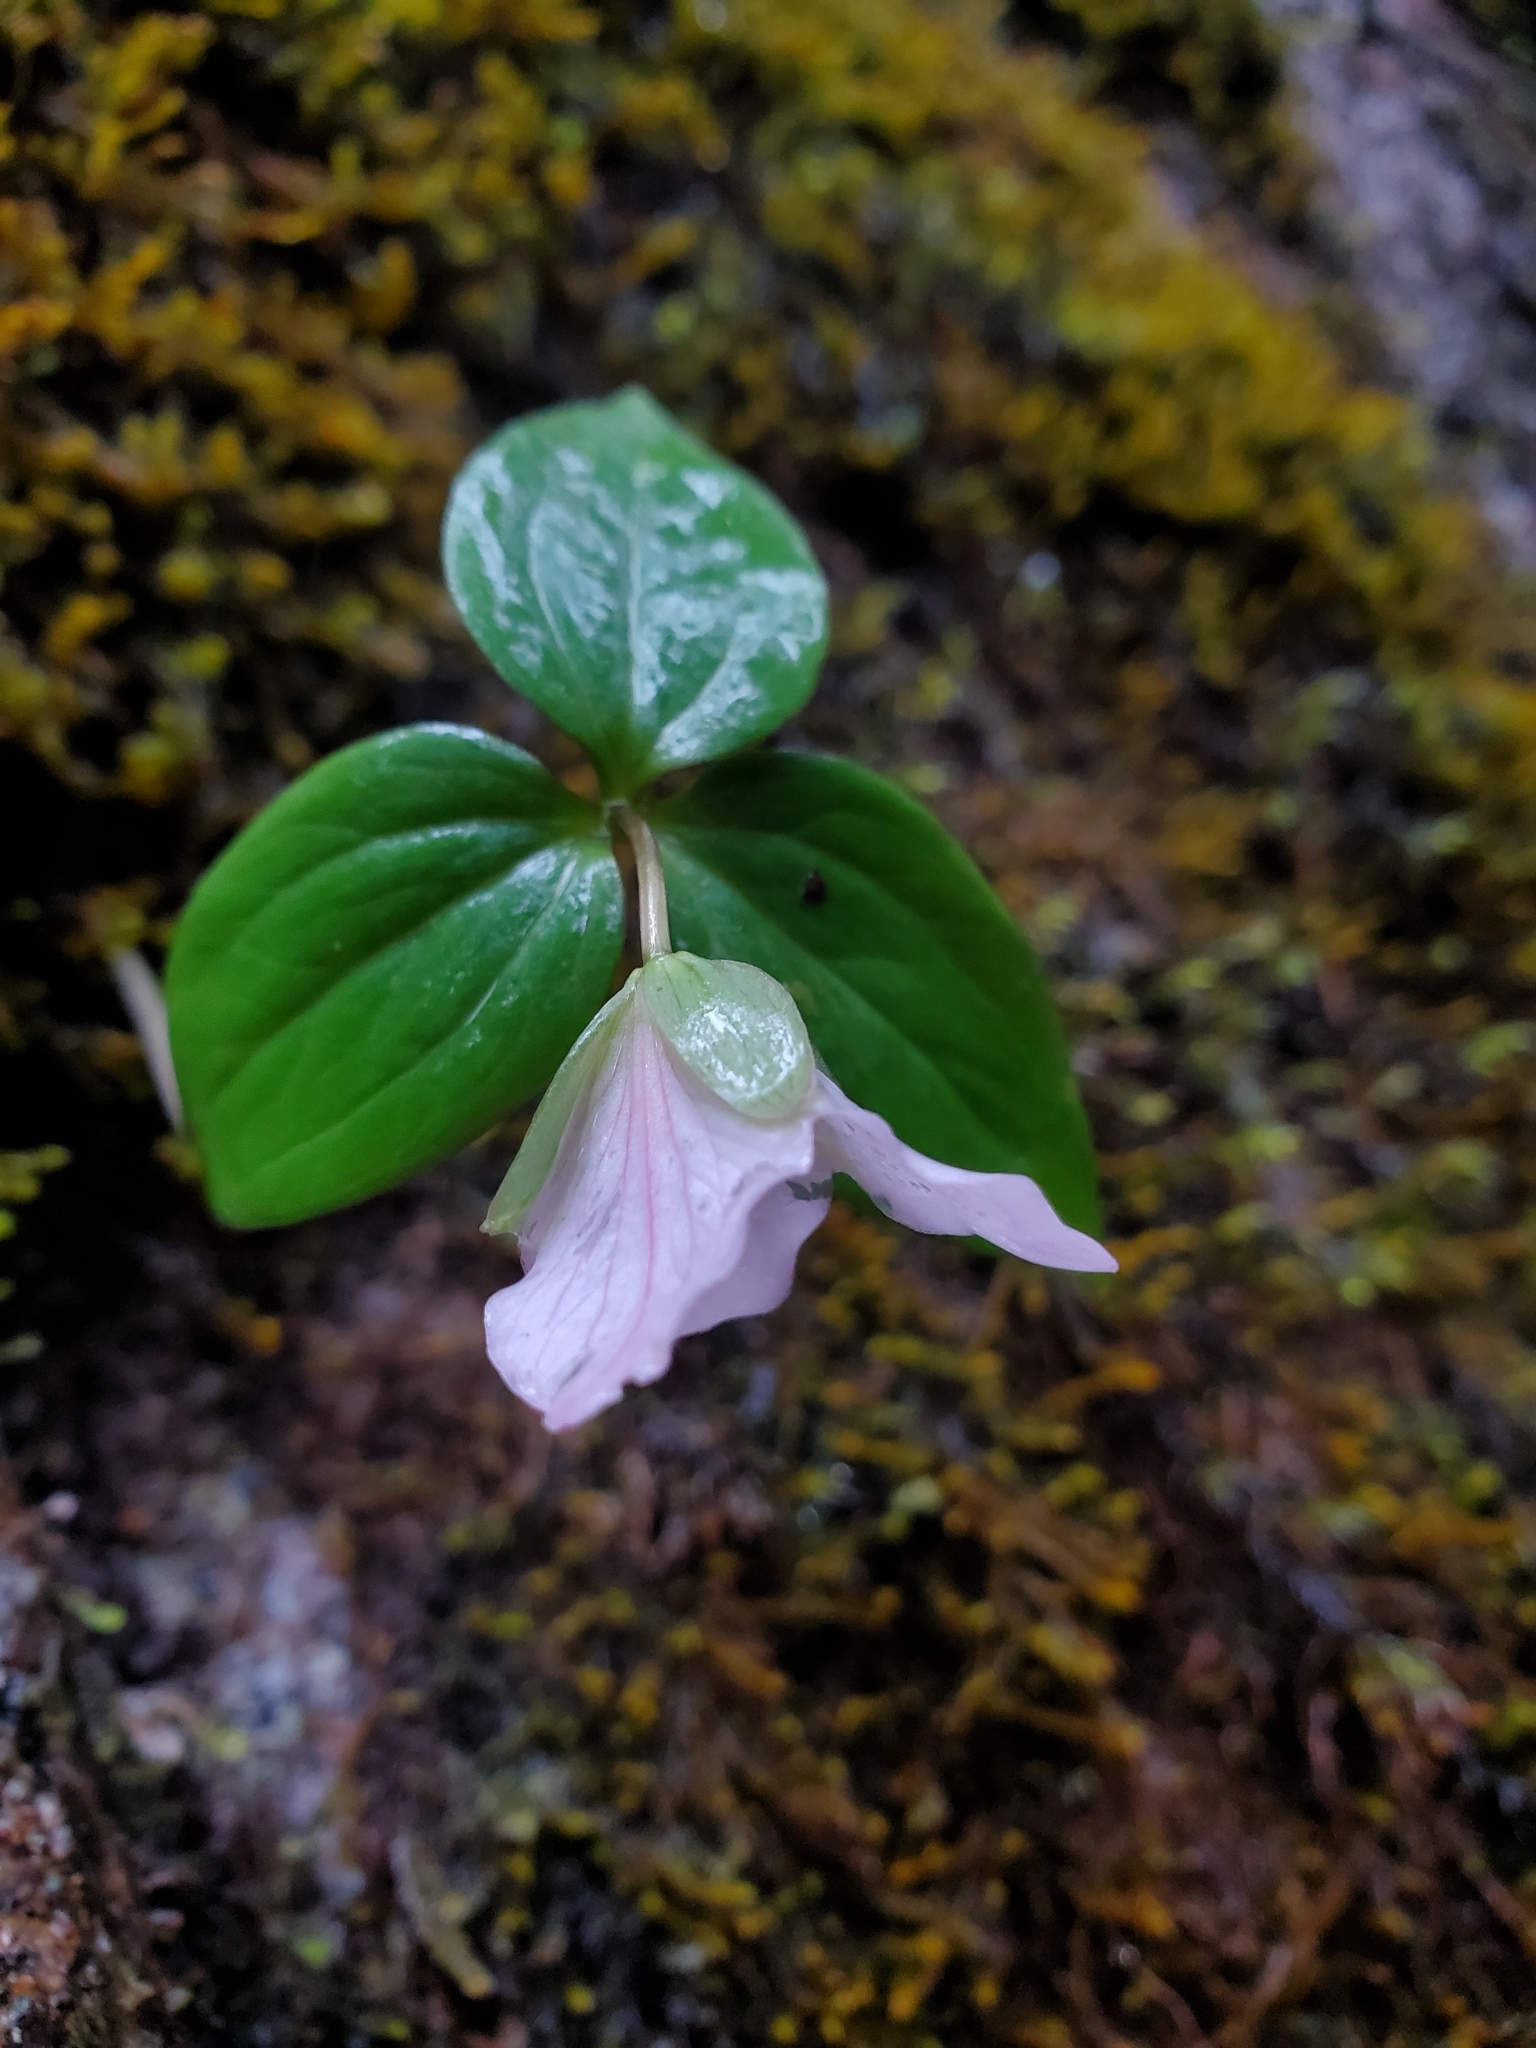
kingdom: Plantae
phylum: Tracheophyta
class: Liliopsida
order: Liliales
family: Melanthiaceae
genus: Trillium
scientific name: Trillium hibbersonii
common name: Hibberson's trillium
